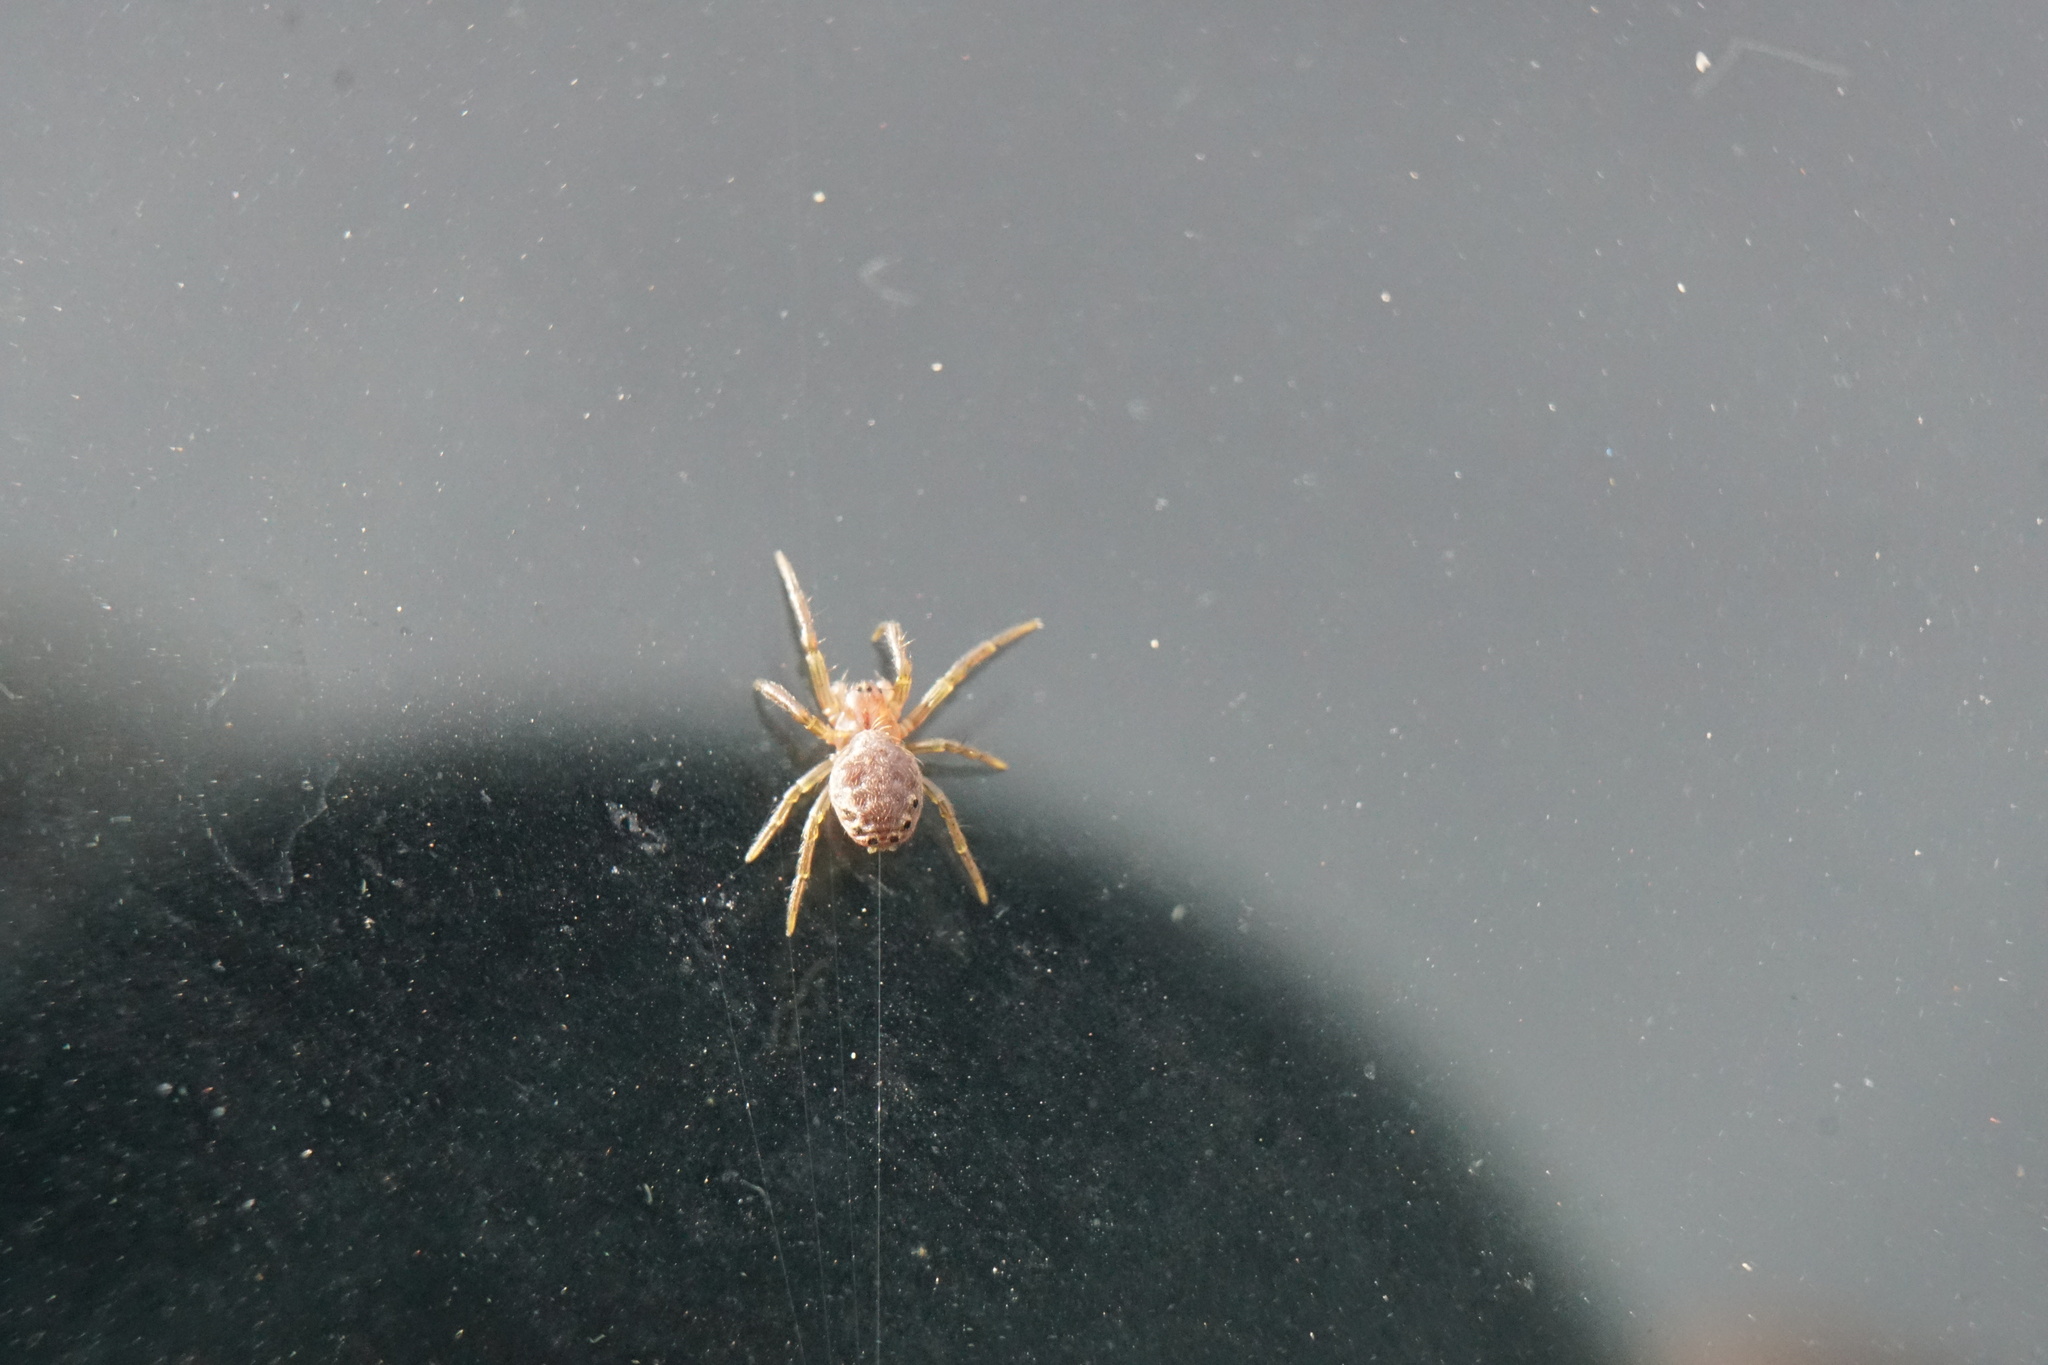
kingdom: Animalia
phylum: Arthropoda
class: Arachnida
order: Araneae
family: Araneidae
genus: Araniella
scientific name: Araniella displicata
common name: Sixspotted orb weaver
